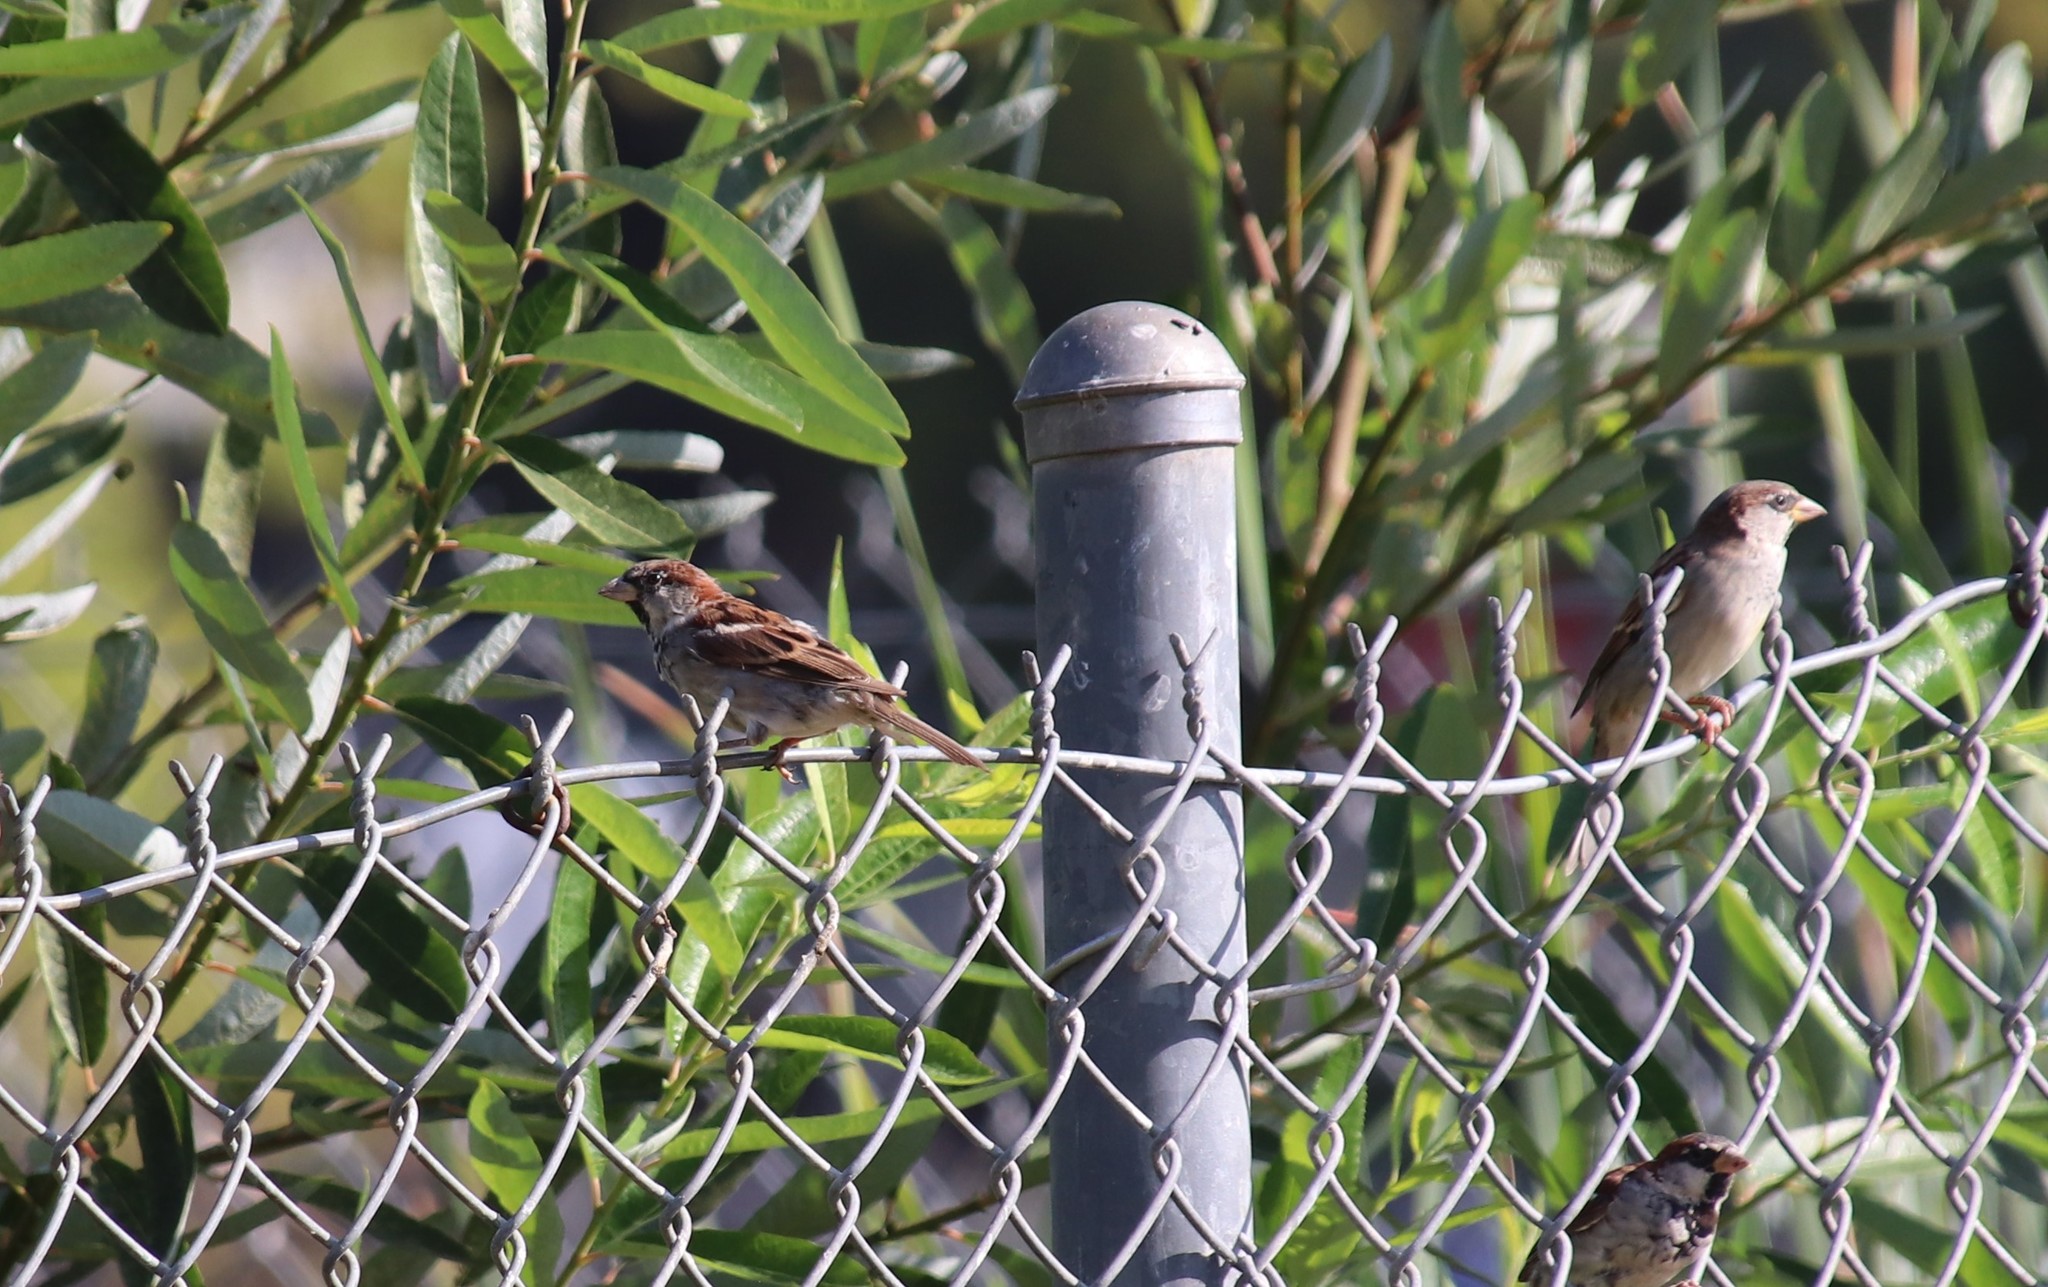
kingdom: Animalia
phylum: Chordata
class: Aves
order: Passeriformes
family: Passeridae
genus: Passer
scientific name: Passer domesticus
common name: House sparrow
